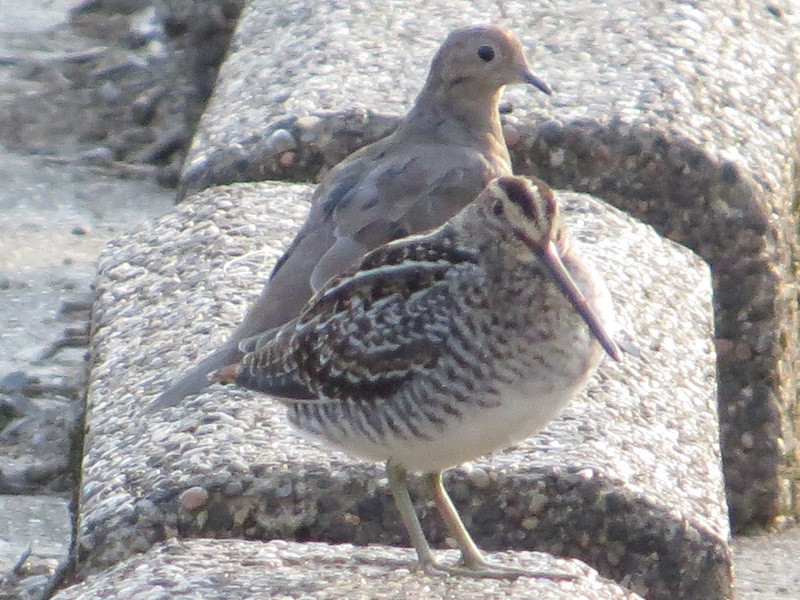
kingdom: Animalia
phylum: Chordata
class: Aves
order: Charadriiformes
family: Scolopacidae
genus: Gallinago
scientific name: Gallinago delicata
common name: Wilson's snipe
